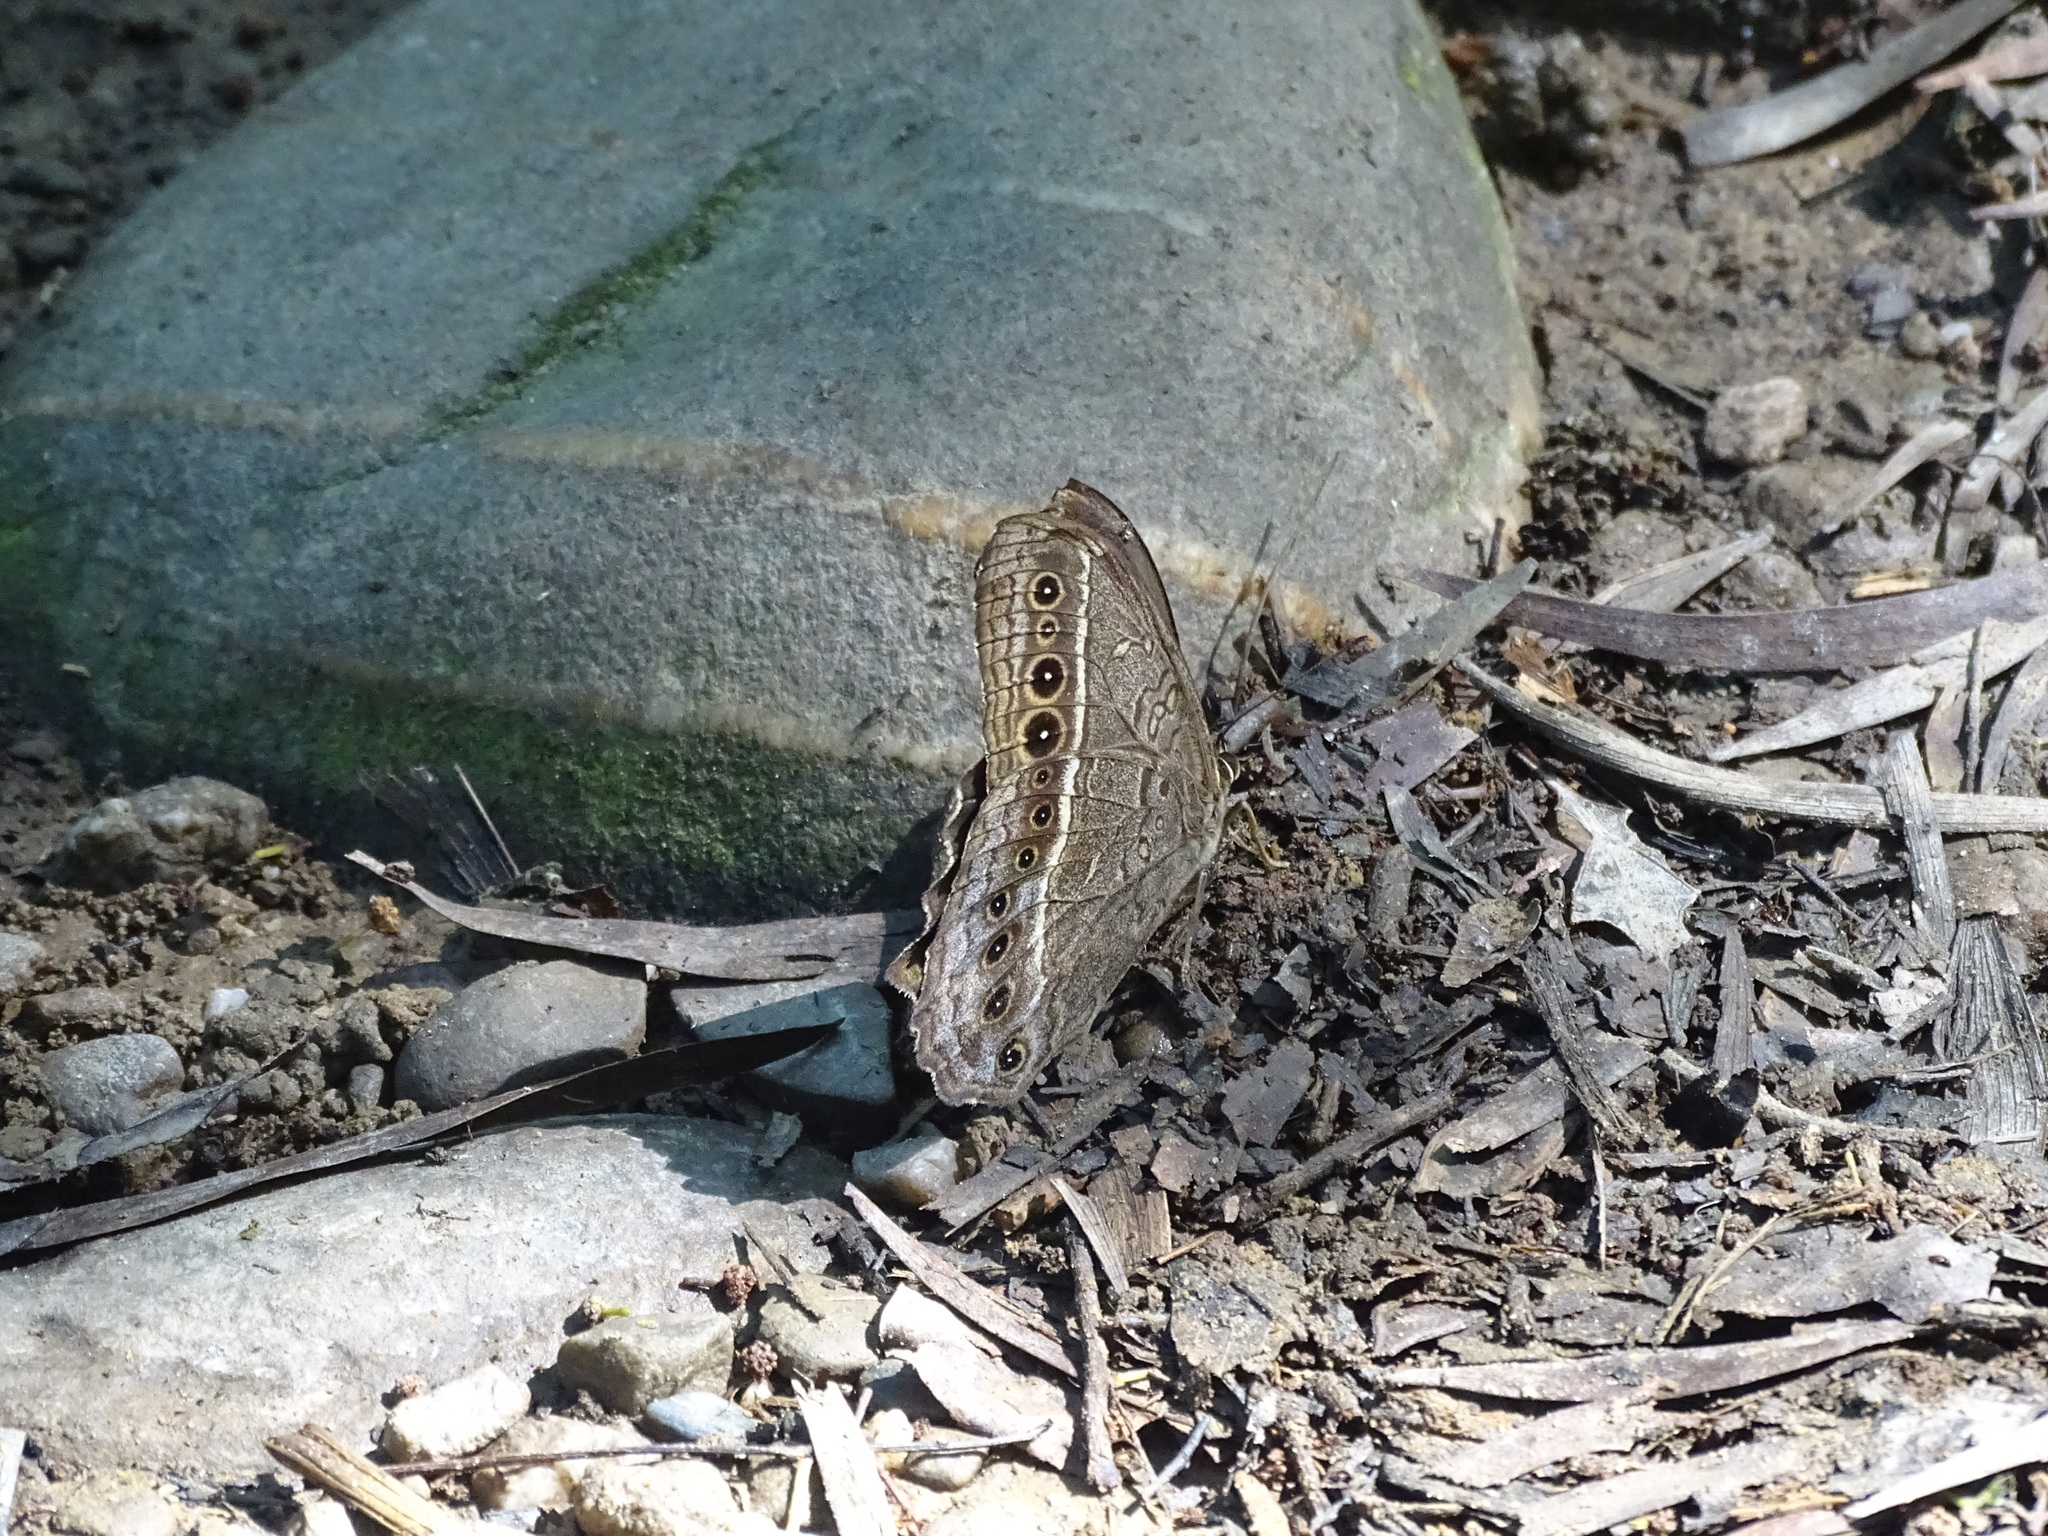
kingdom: Animalia
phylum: Arthropoda
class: Insecta
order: Lepidoptera
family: Nymphalidae
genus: Neope
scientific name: Neope muirheadii
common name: Black-spotted labyrinth
